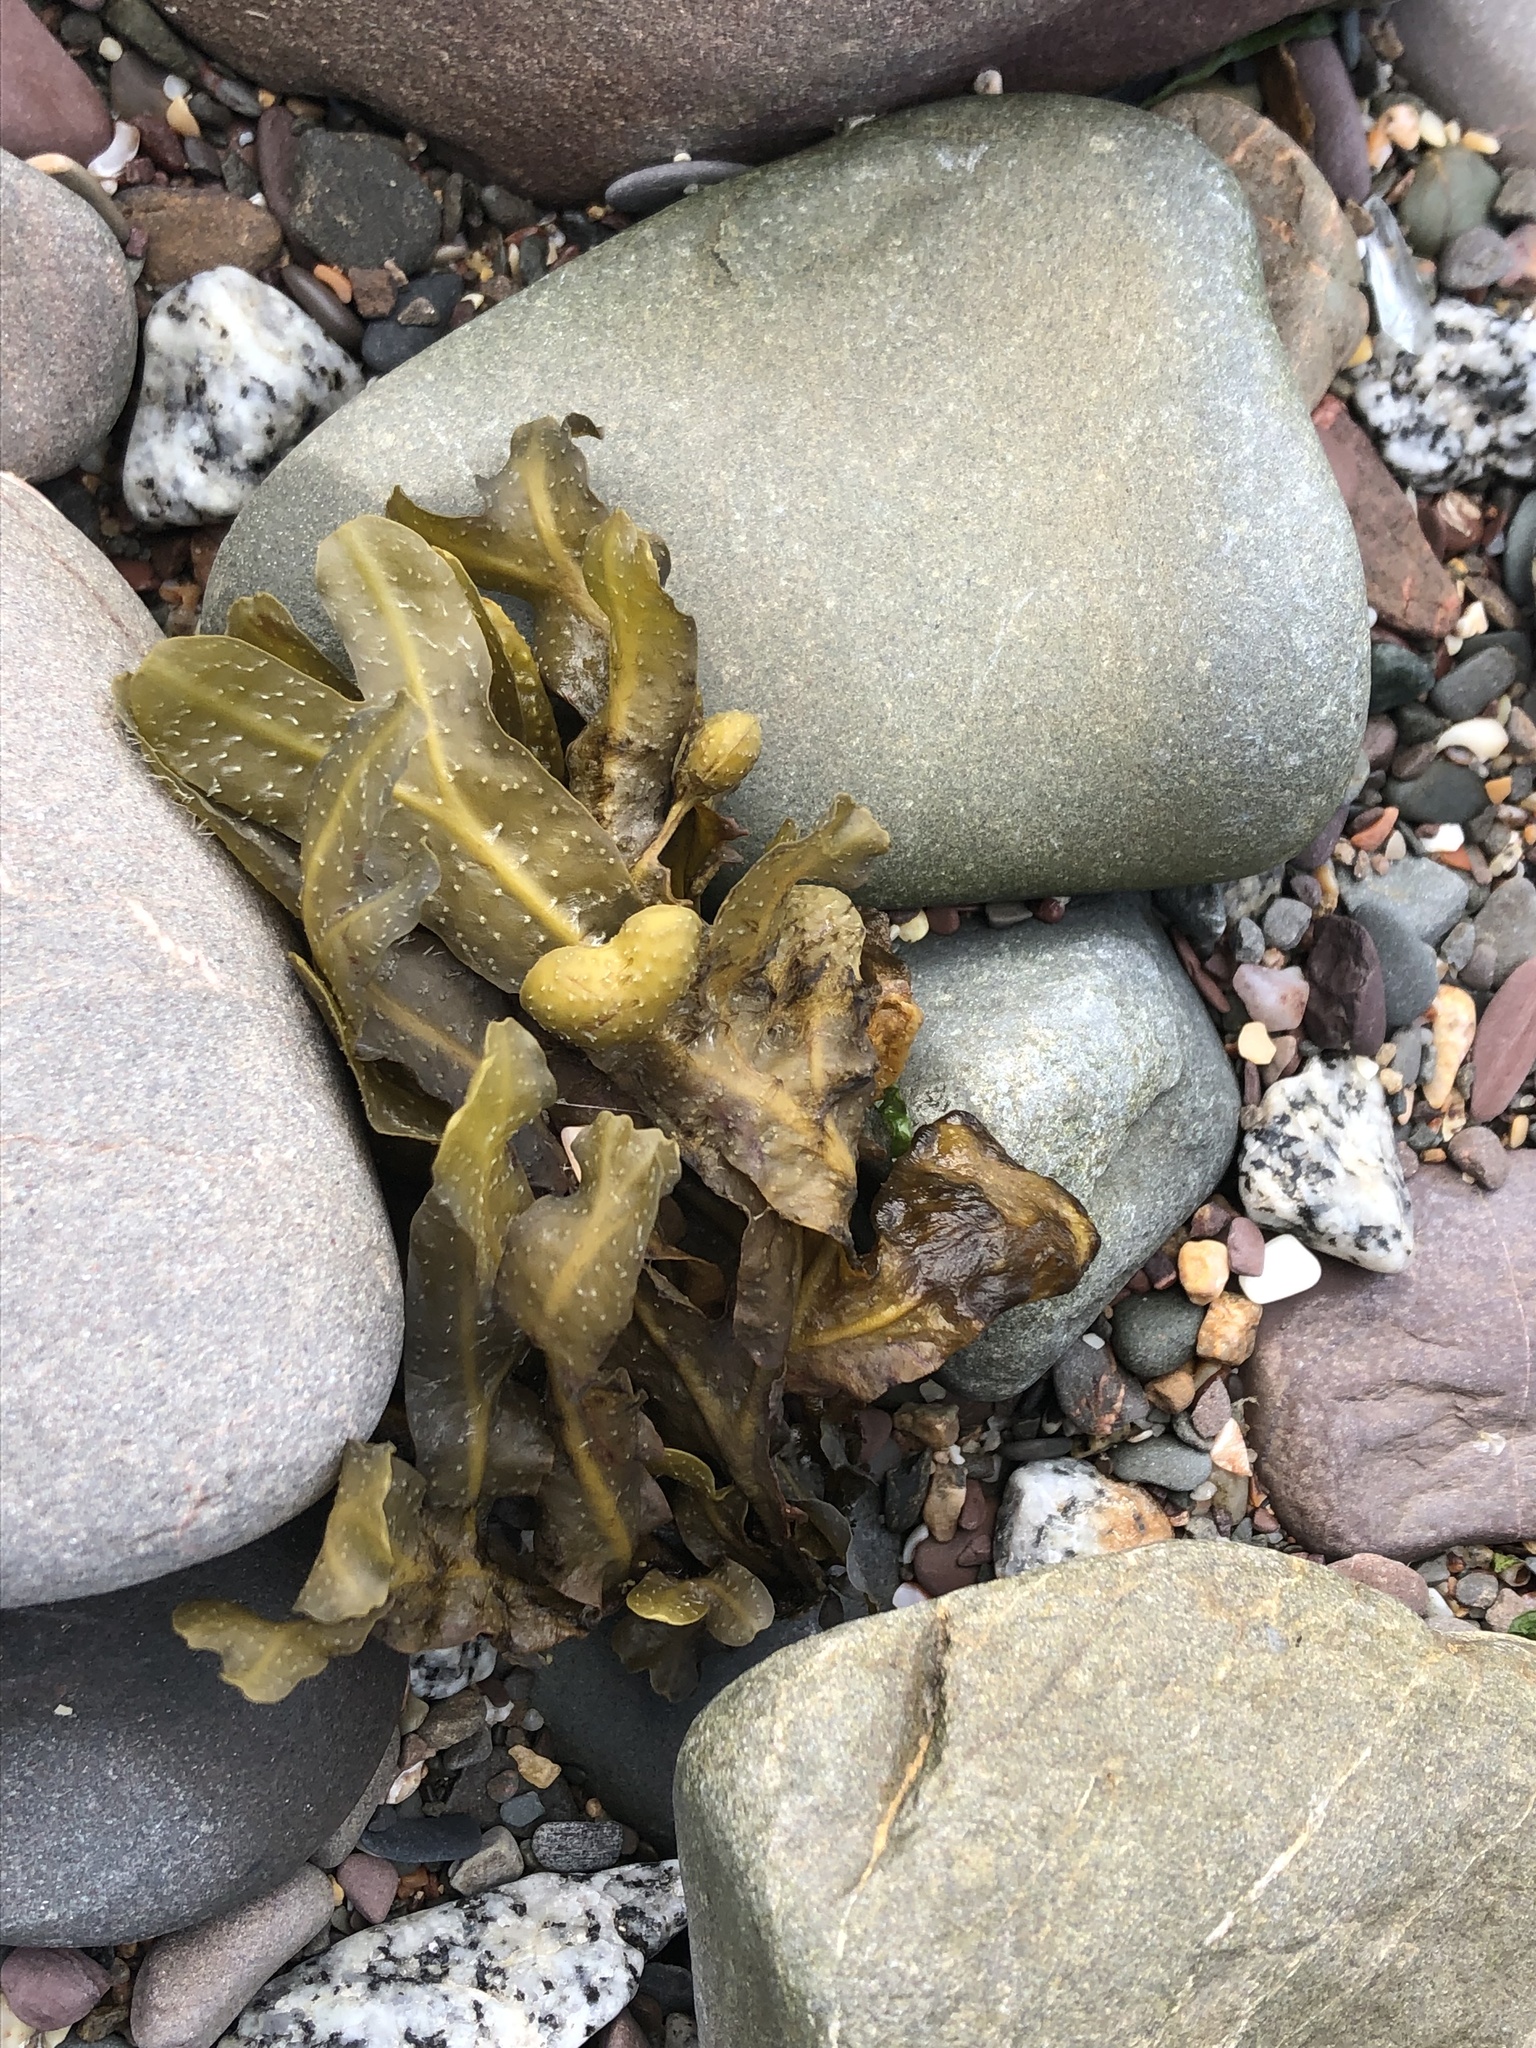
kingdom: Chromista
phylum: Ochrophyta
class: Phaeophyceae
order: Fucales
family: Fucaceae
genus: Fucus
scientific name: Fucus vesiculosus
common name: Bladder wrack
